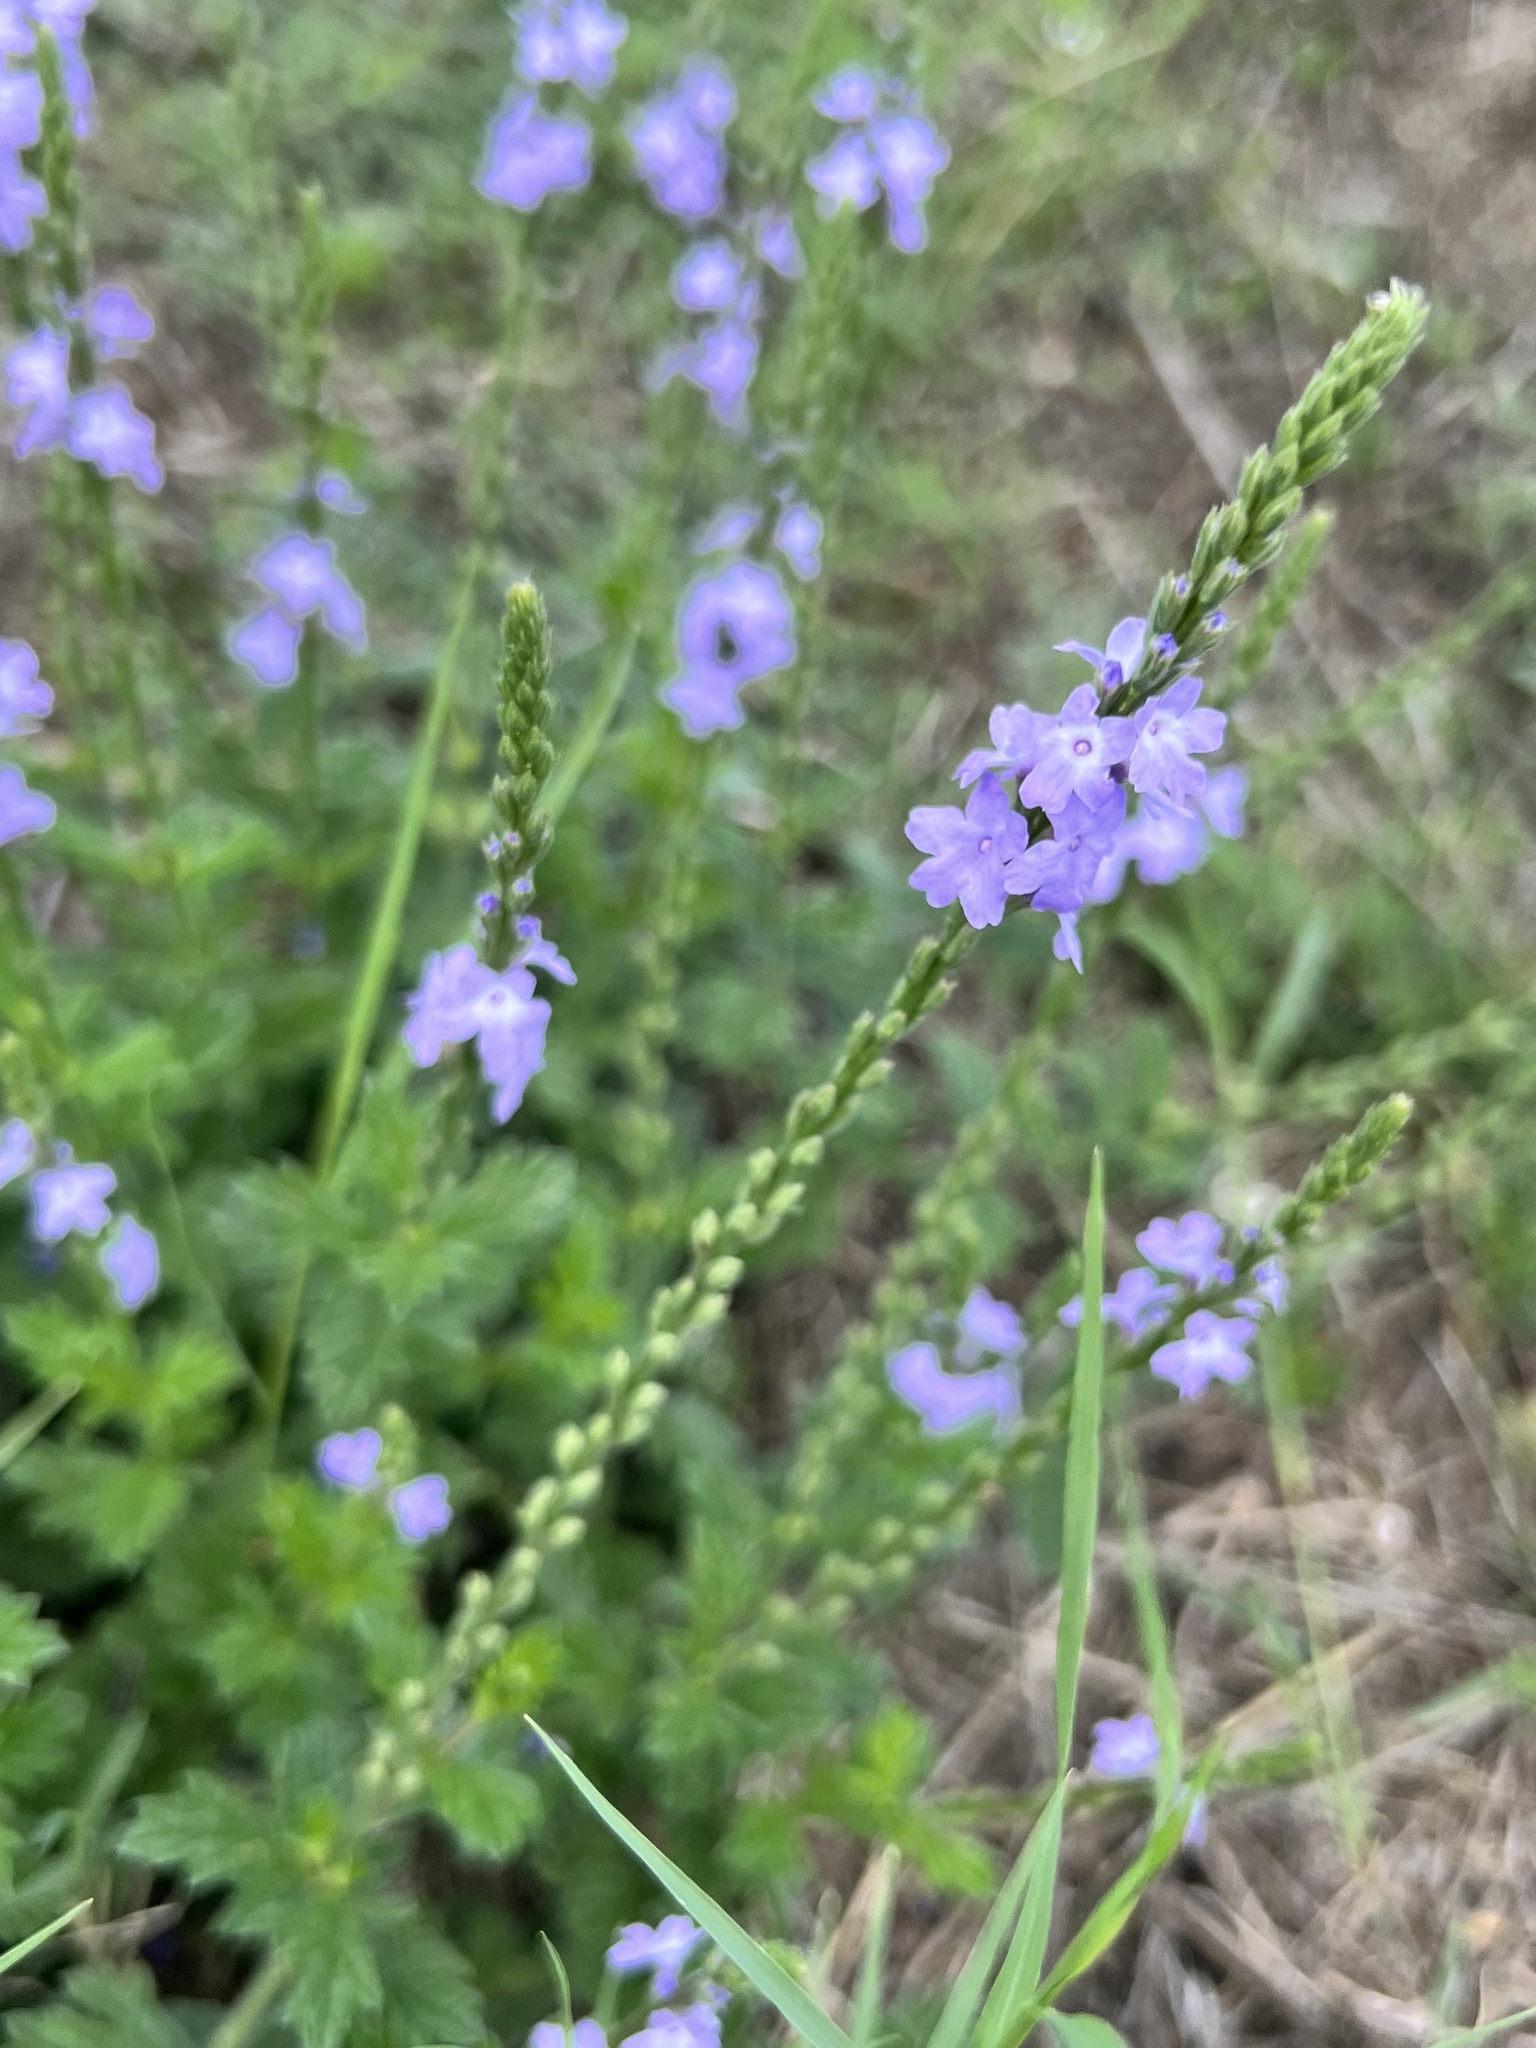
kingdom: Plantae
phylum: Tracheophyta
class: Magnoliopsida
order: Lamiales
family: Verbenaceae
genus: Verbena
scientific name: Verbena xutha
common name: Gulf vervain
